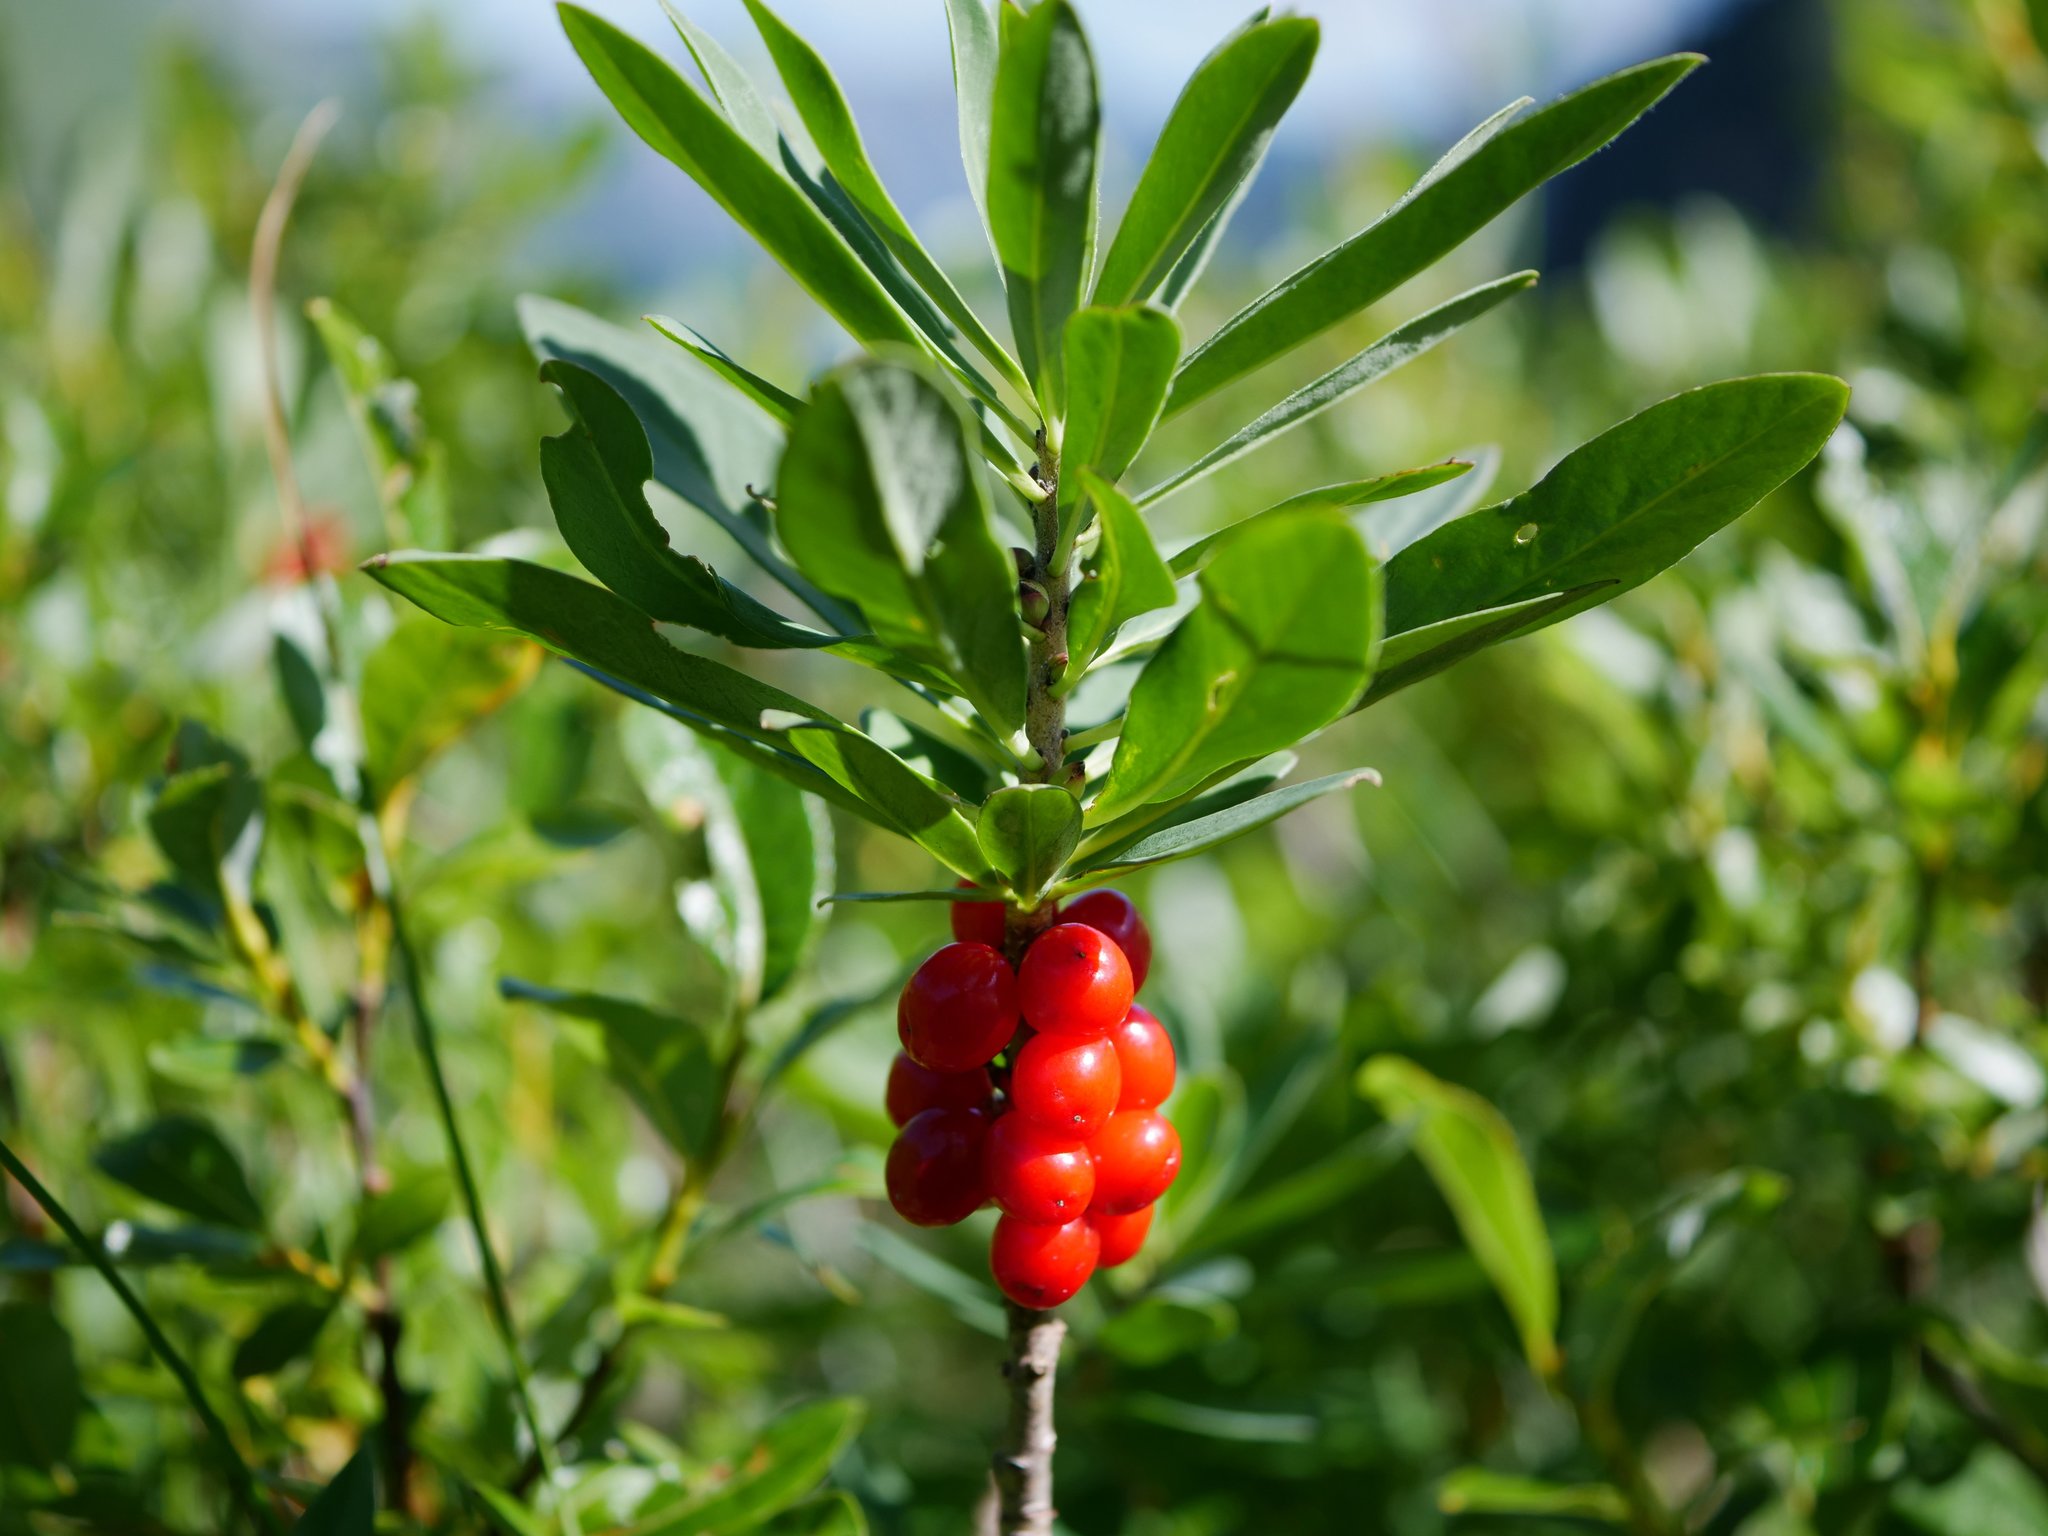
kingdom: Plantae
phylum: Tracheophyta
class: Magnoliopsida
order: Malvales
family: Thymelaeaceae
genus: Daphne
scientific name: Daphne mezereum
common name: Mezereon
